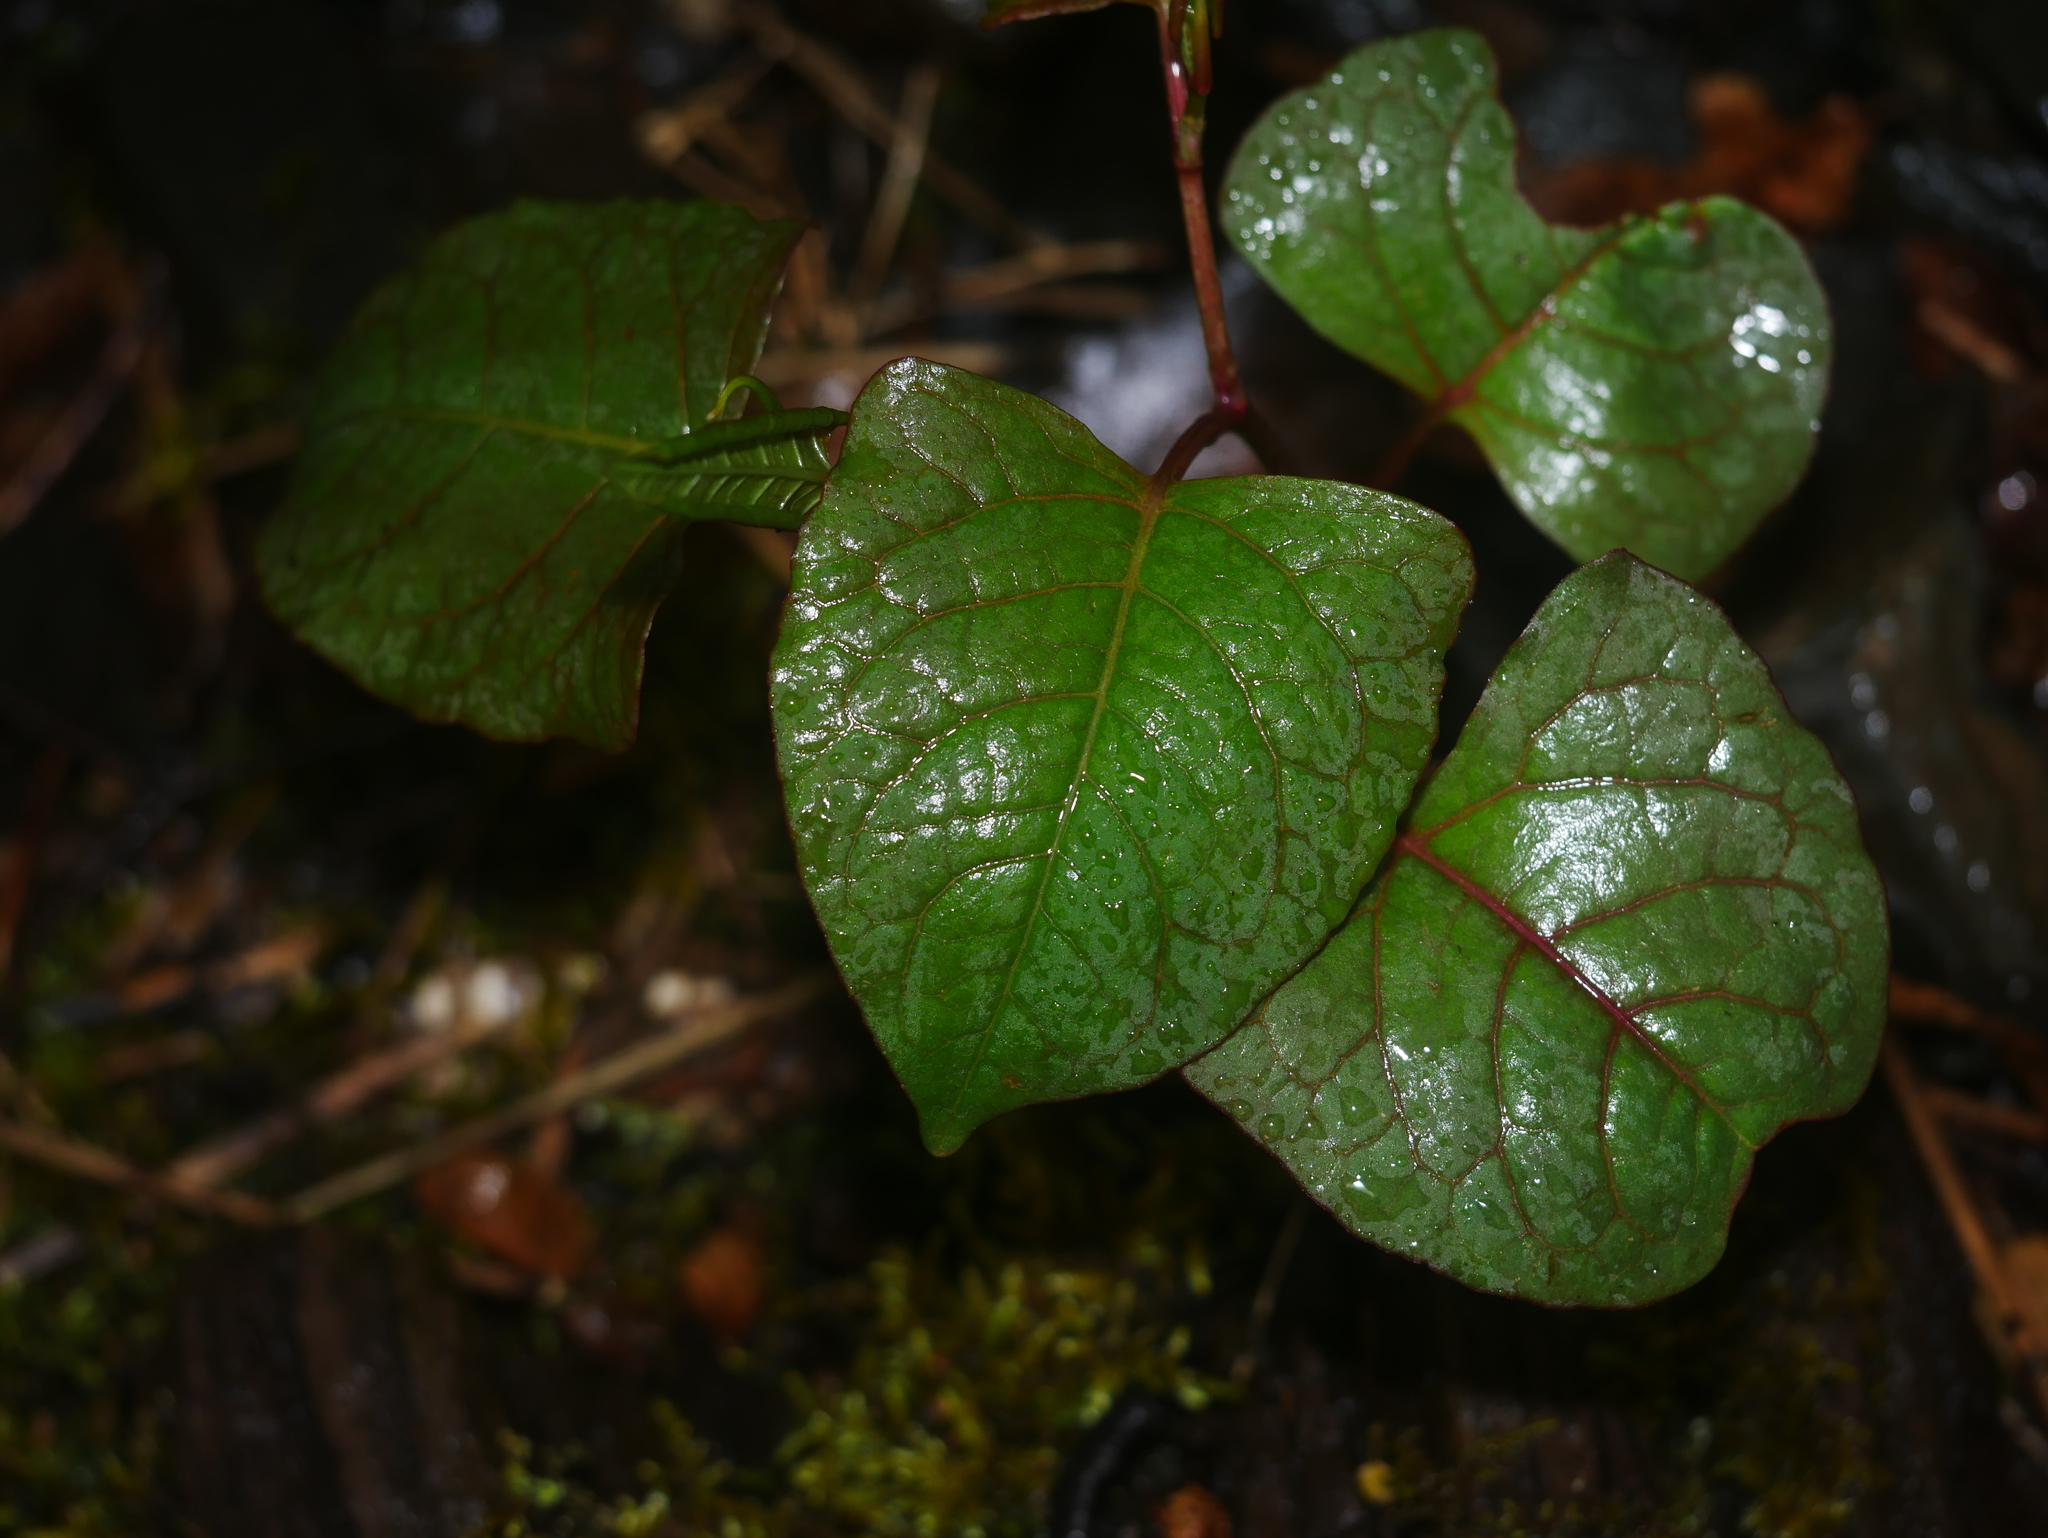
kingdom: Plantae
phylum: Tracheophyta
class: Magnoliopsida
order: Caryophyllales
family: Polygonaceae
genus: Reynoutria
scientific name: Reynoutria japonica
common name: Japanese knotweed
